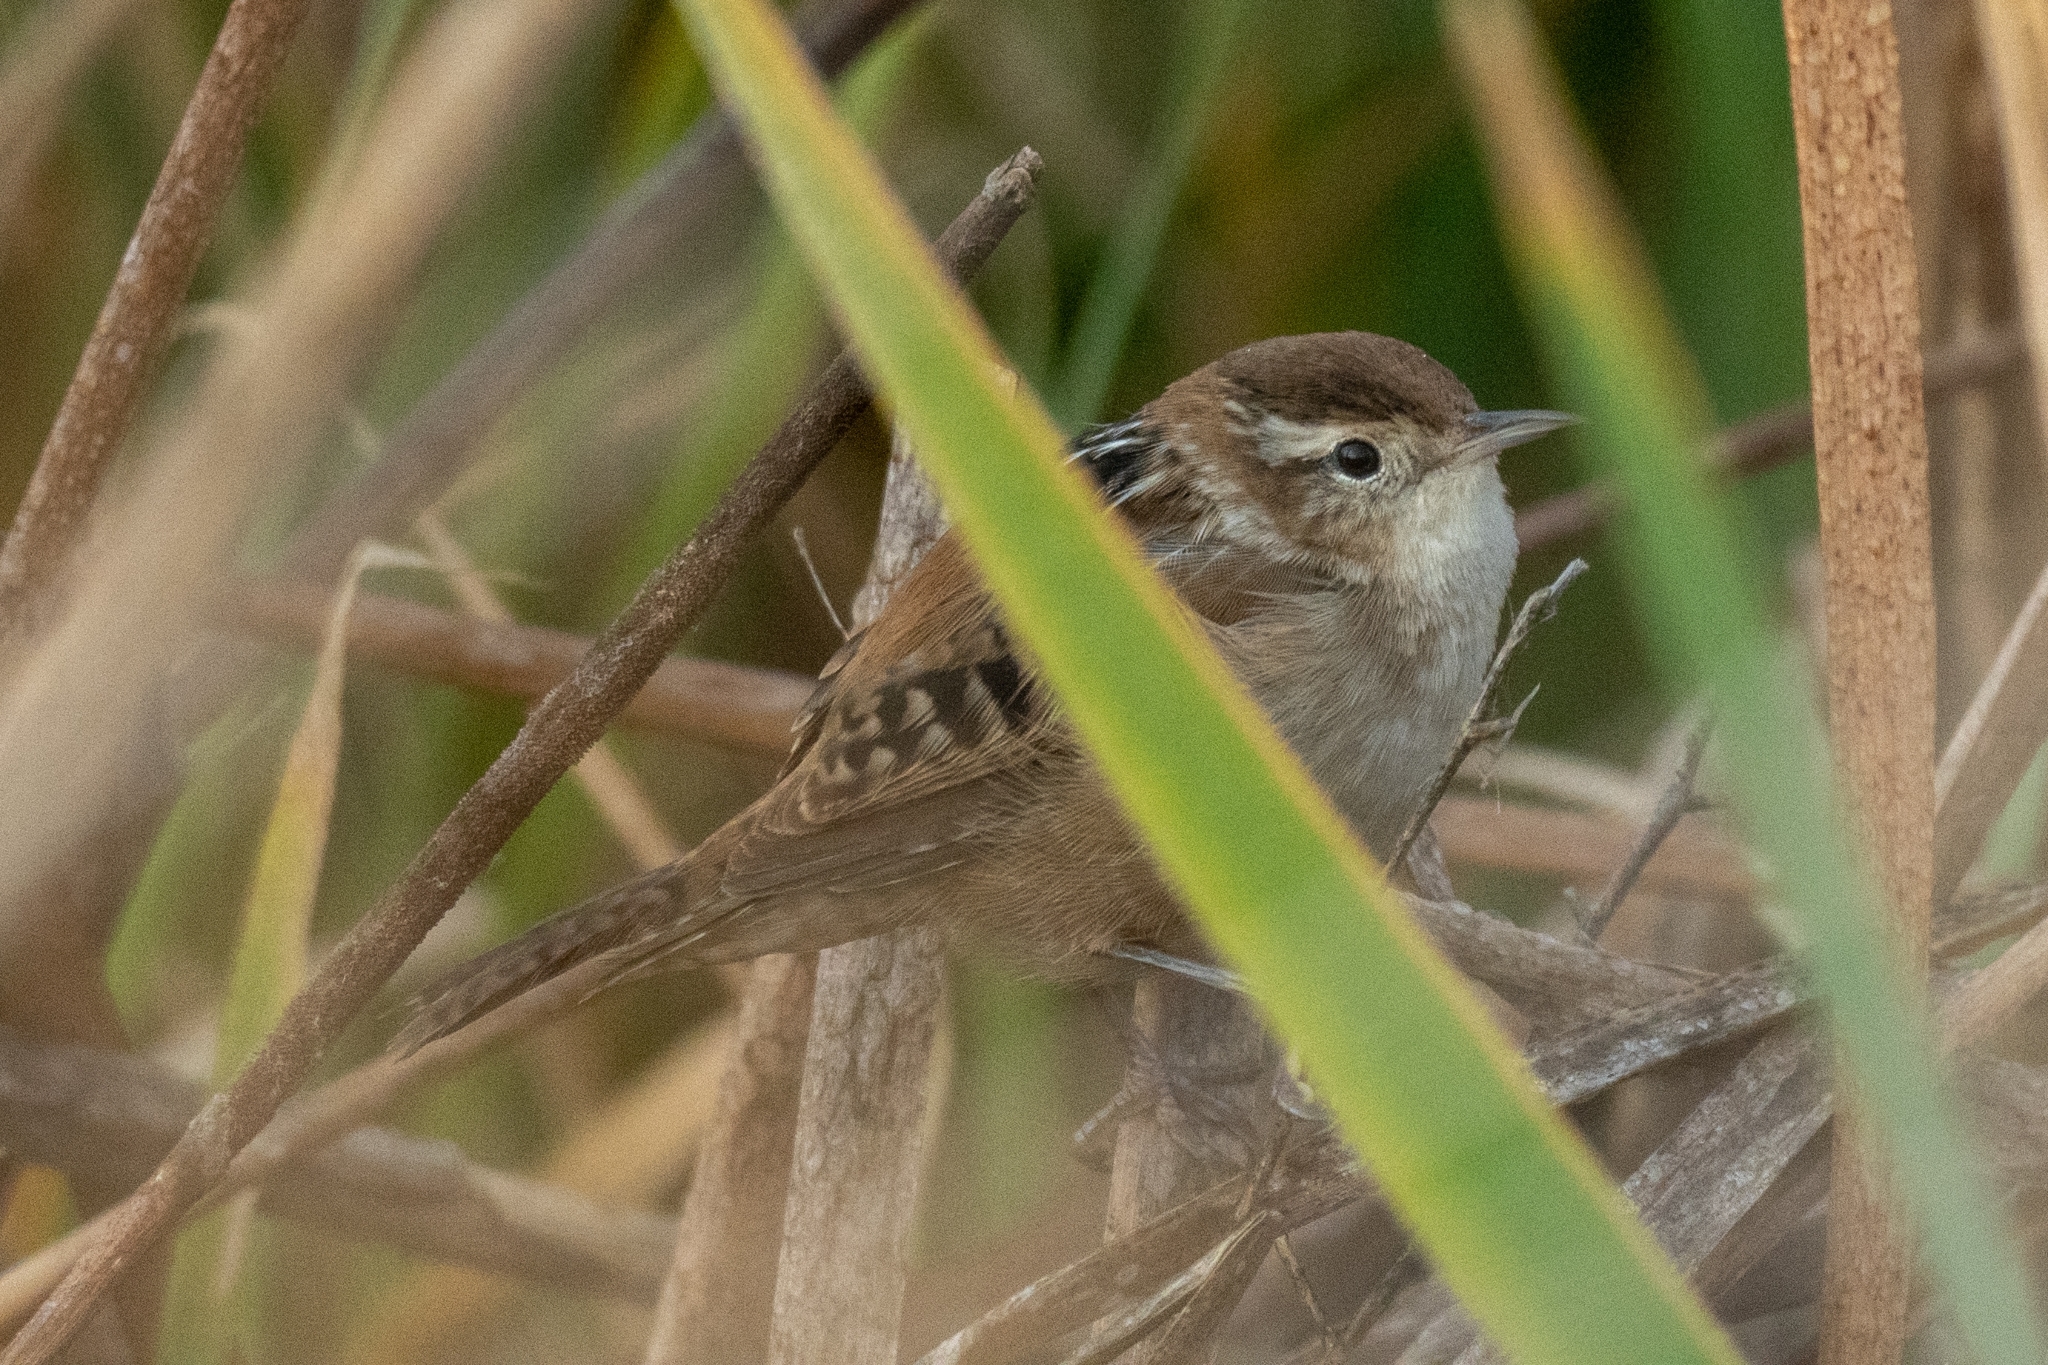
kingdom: Animalia
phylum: Chordata
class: Aves
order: Passeriformes
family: Troglodytidae
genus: Cistothorus
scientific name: Cistothorus palustris
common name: Marsh wren
